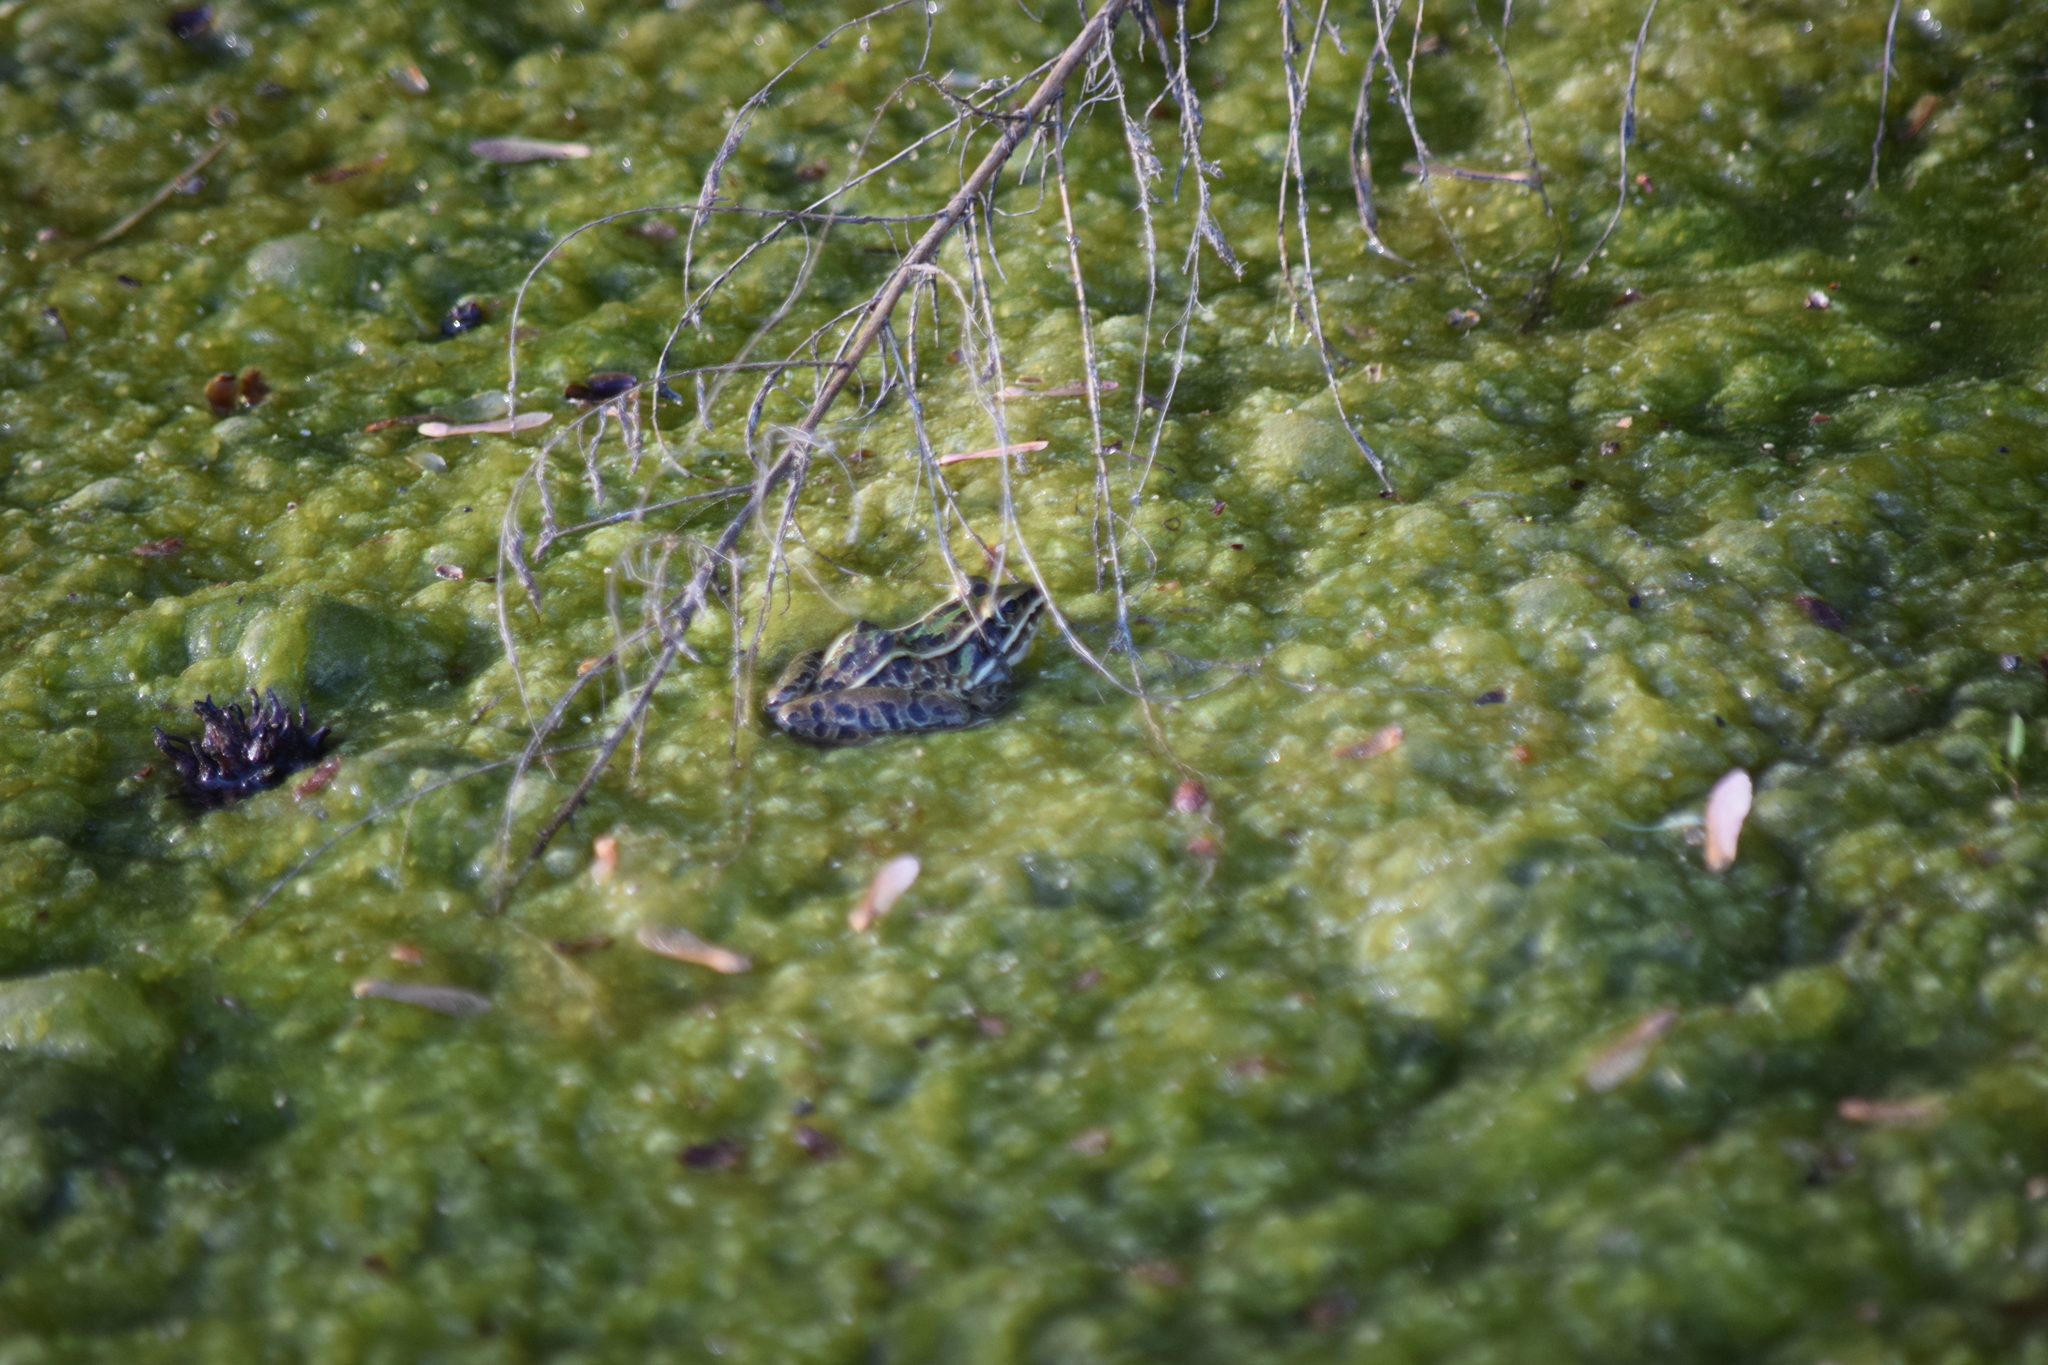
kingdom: Animalia
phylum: Chordata
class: Amphibia
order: Anura
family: Ranidae
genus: Lithobates
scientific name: Lithobates sphenocephalus
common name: Southern leopard frog
